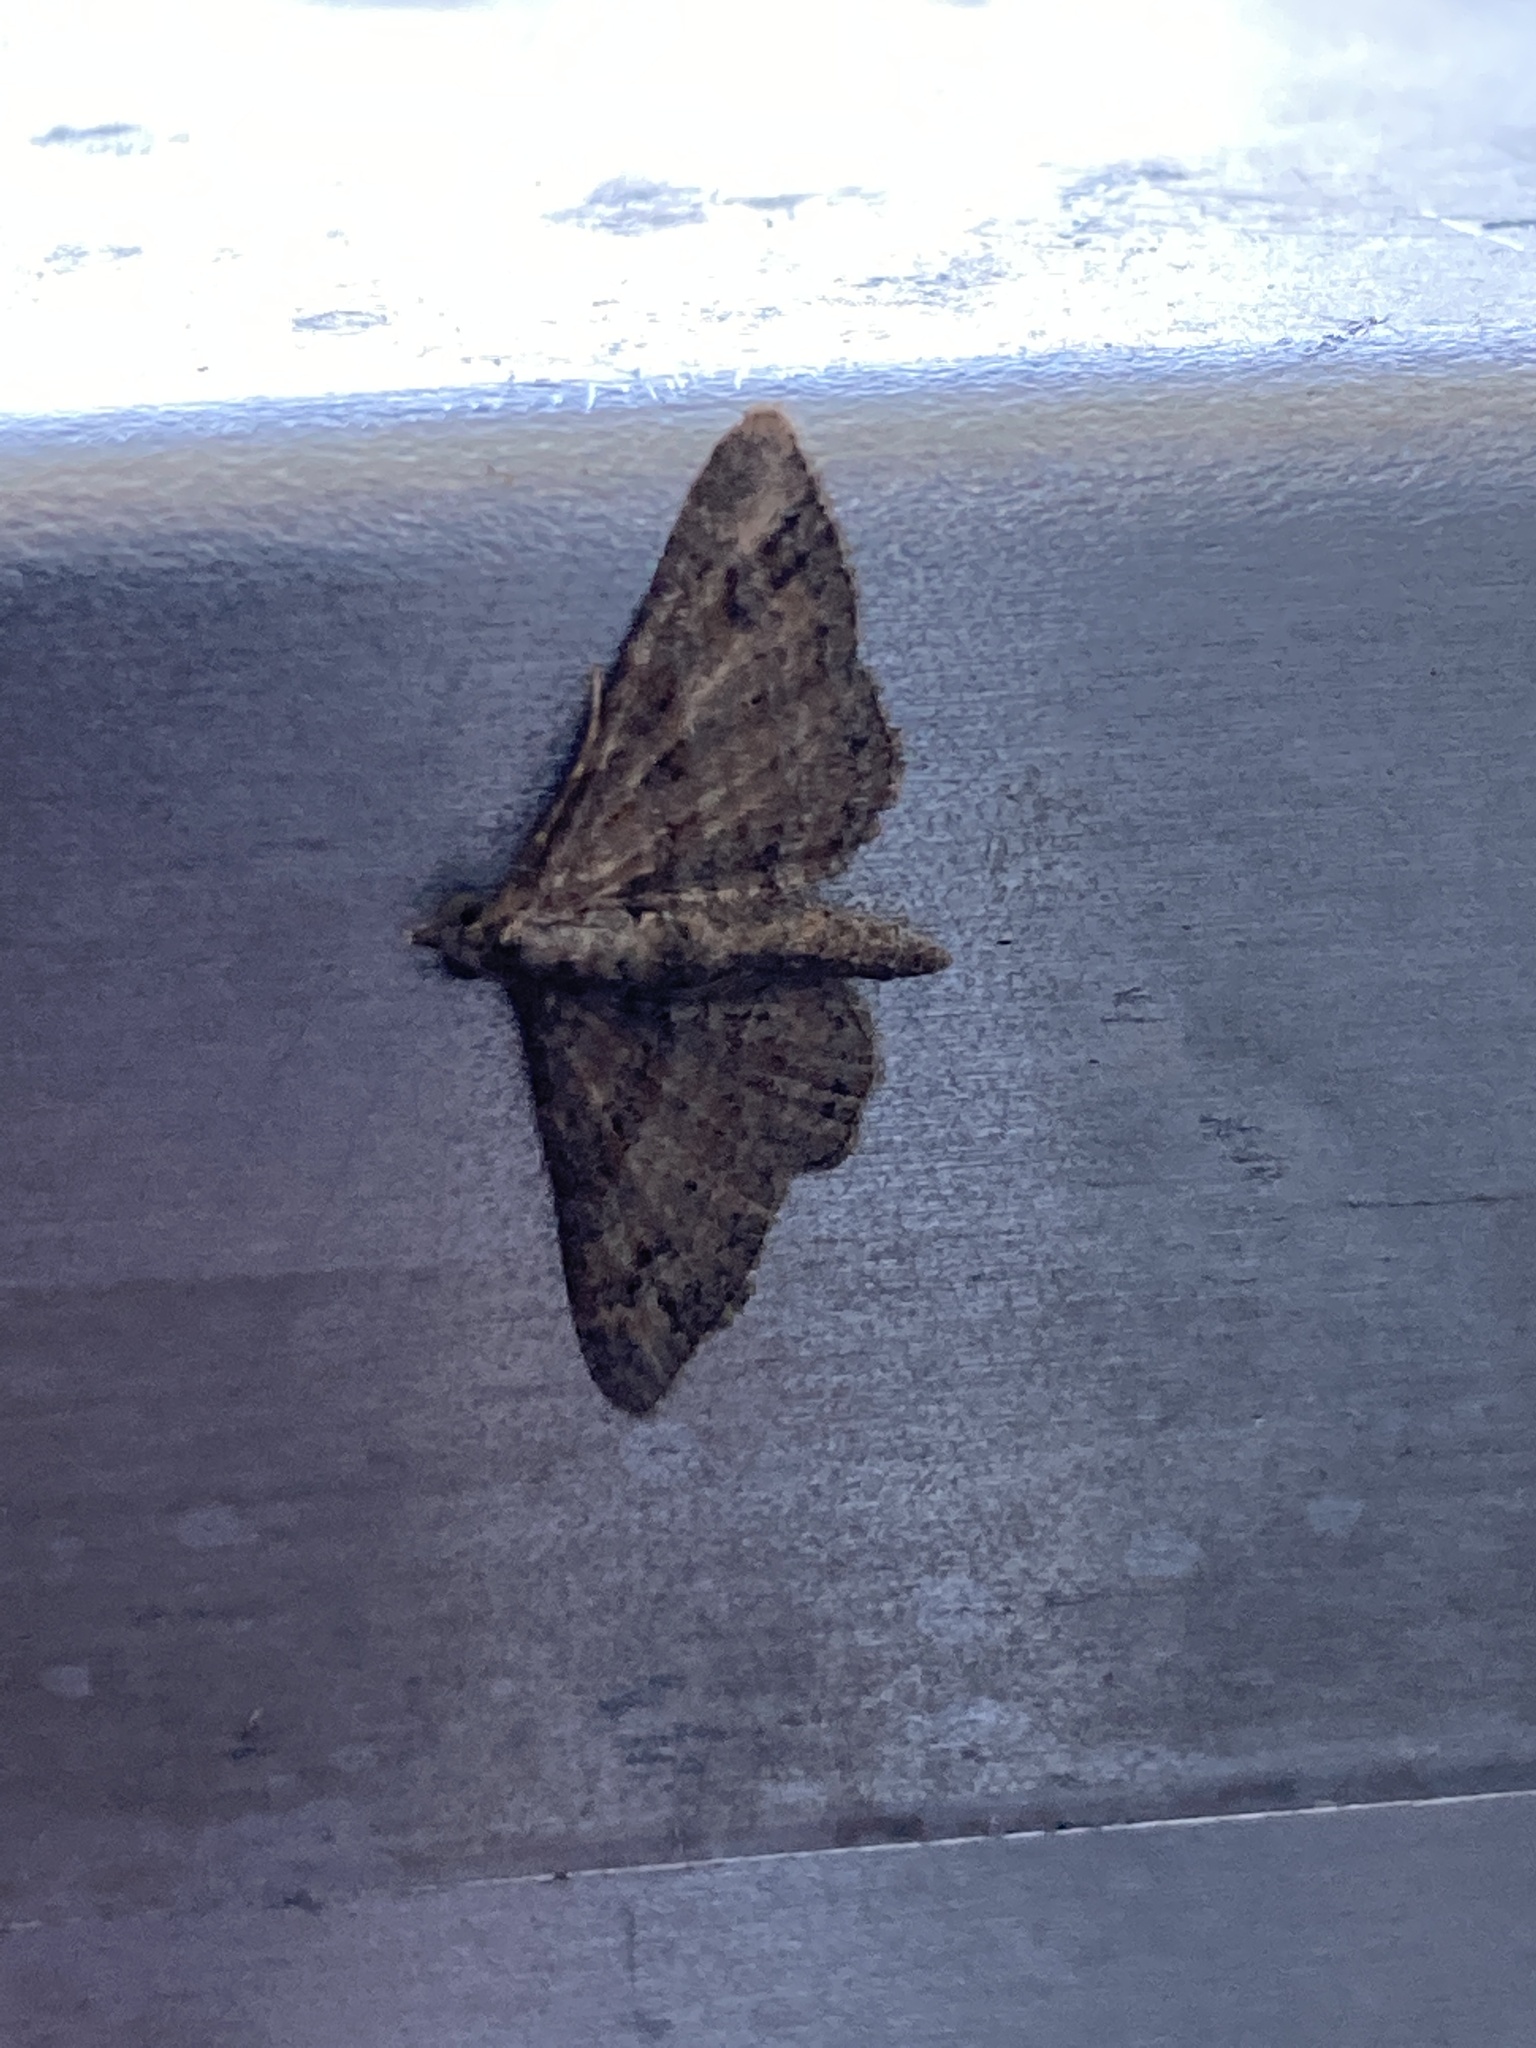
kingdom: Animalia
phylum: Arthropoda
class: Insecta
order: Lepidoptera
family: Geometridae
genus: Gymnoscelis
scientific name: Gymnoscelis rufifasciata
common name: Double-striped pug
